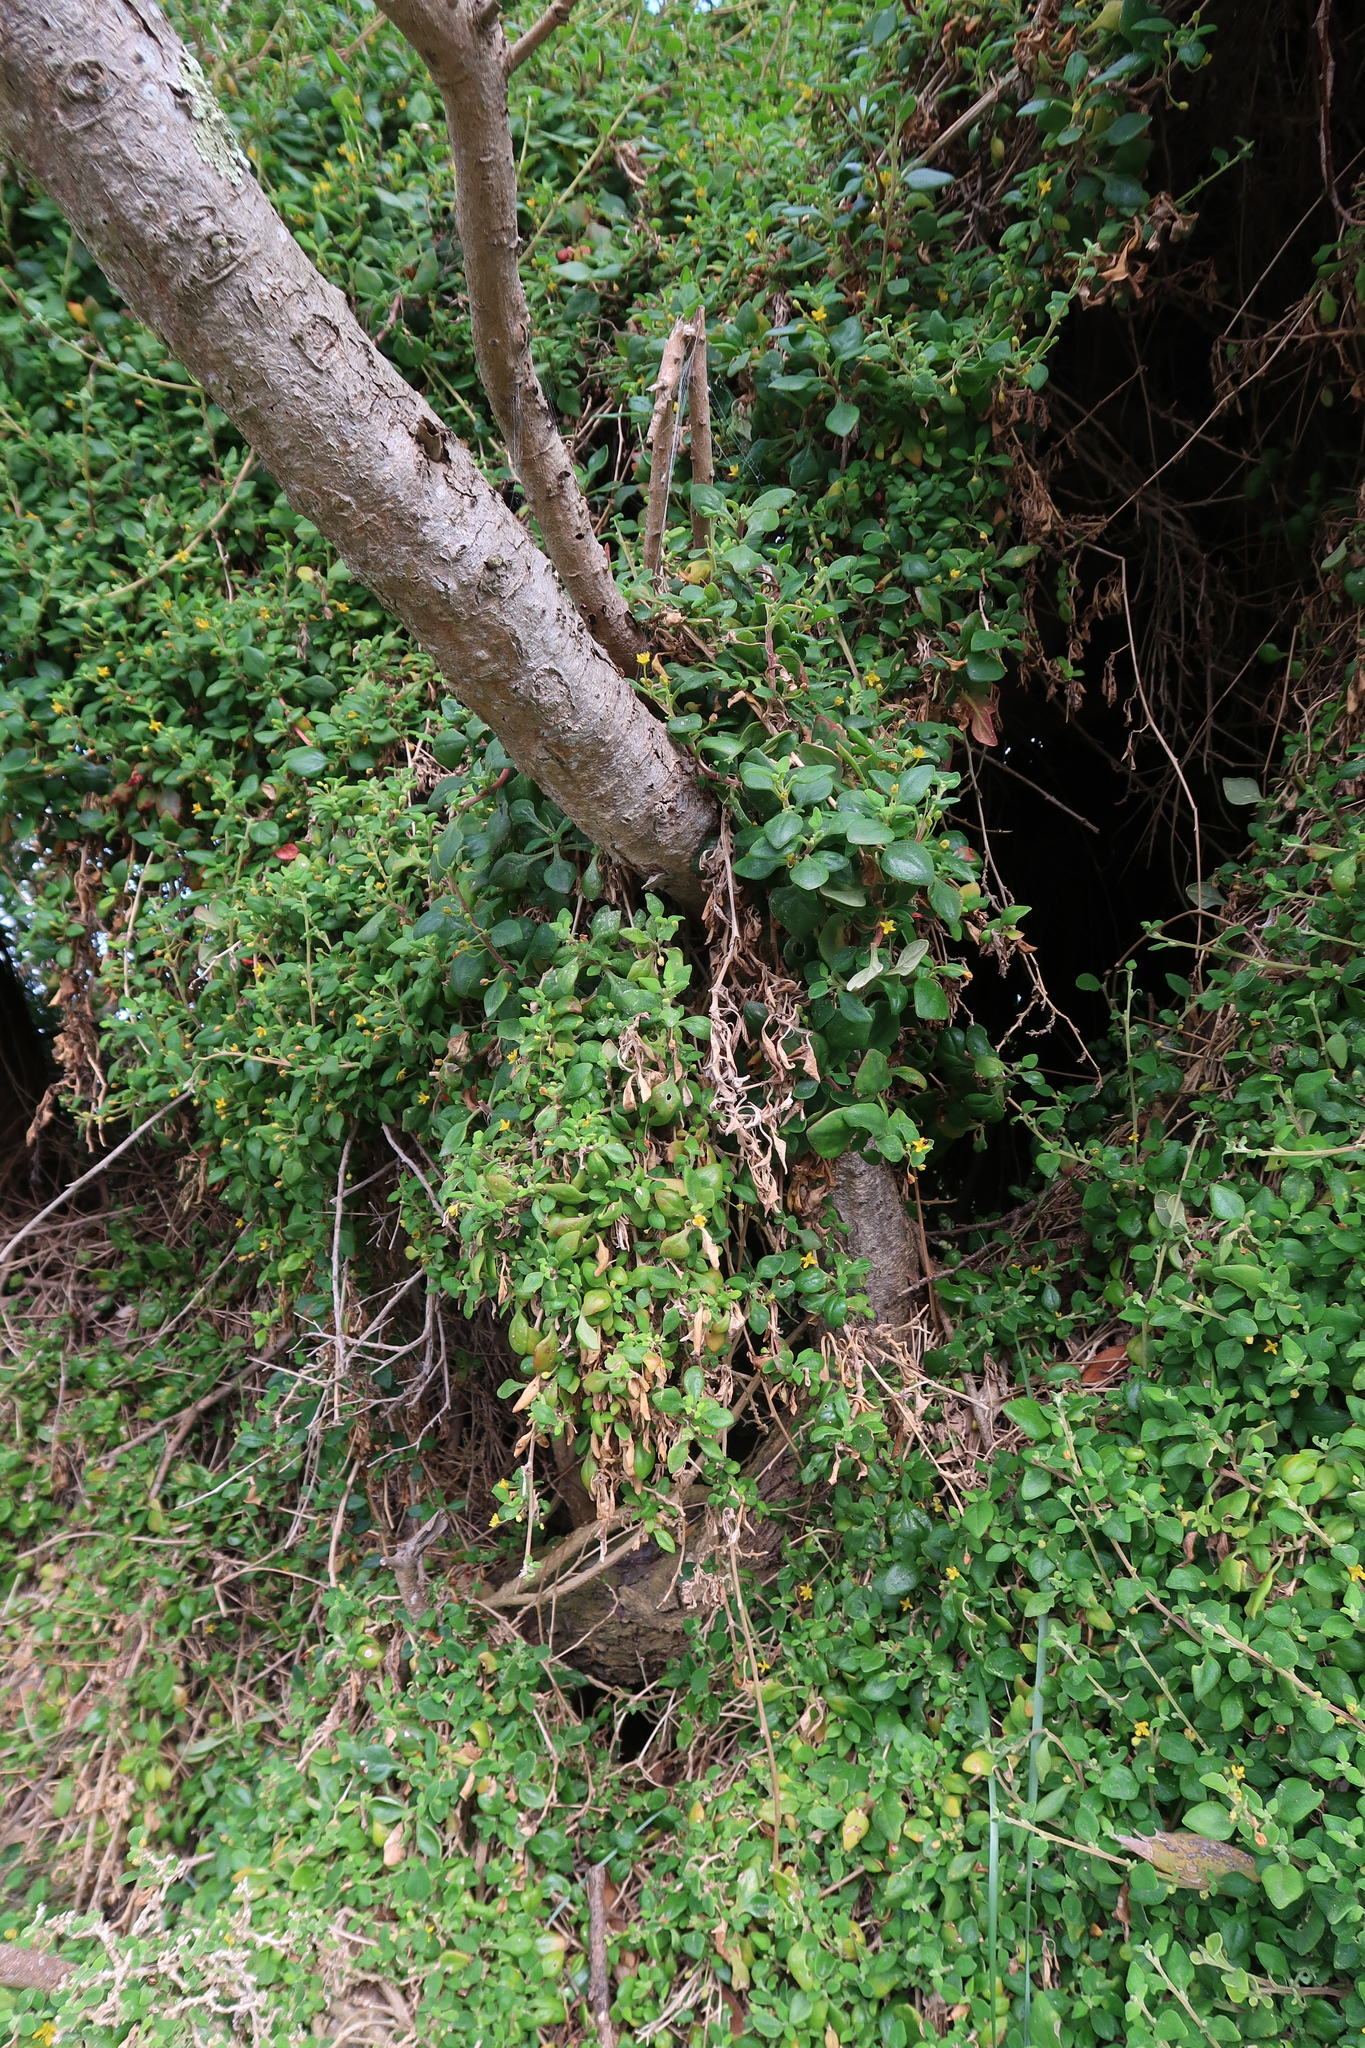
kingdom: Plantae
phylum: Tracheophyta
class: Magnoliopsida
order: Caryophyllales
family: Aizoaceae
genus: Tetragonia
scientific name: Tetragonia implexicoma
